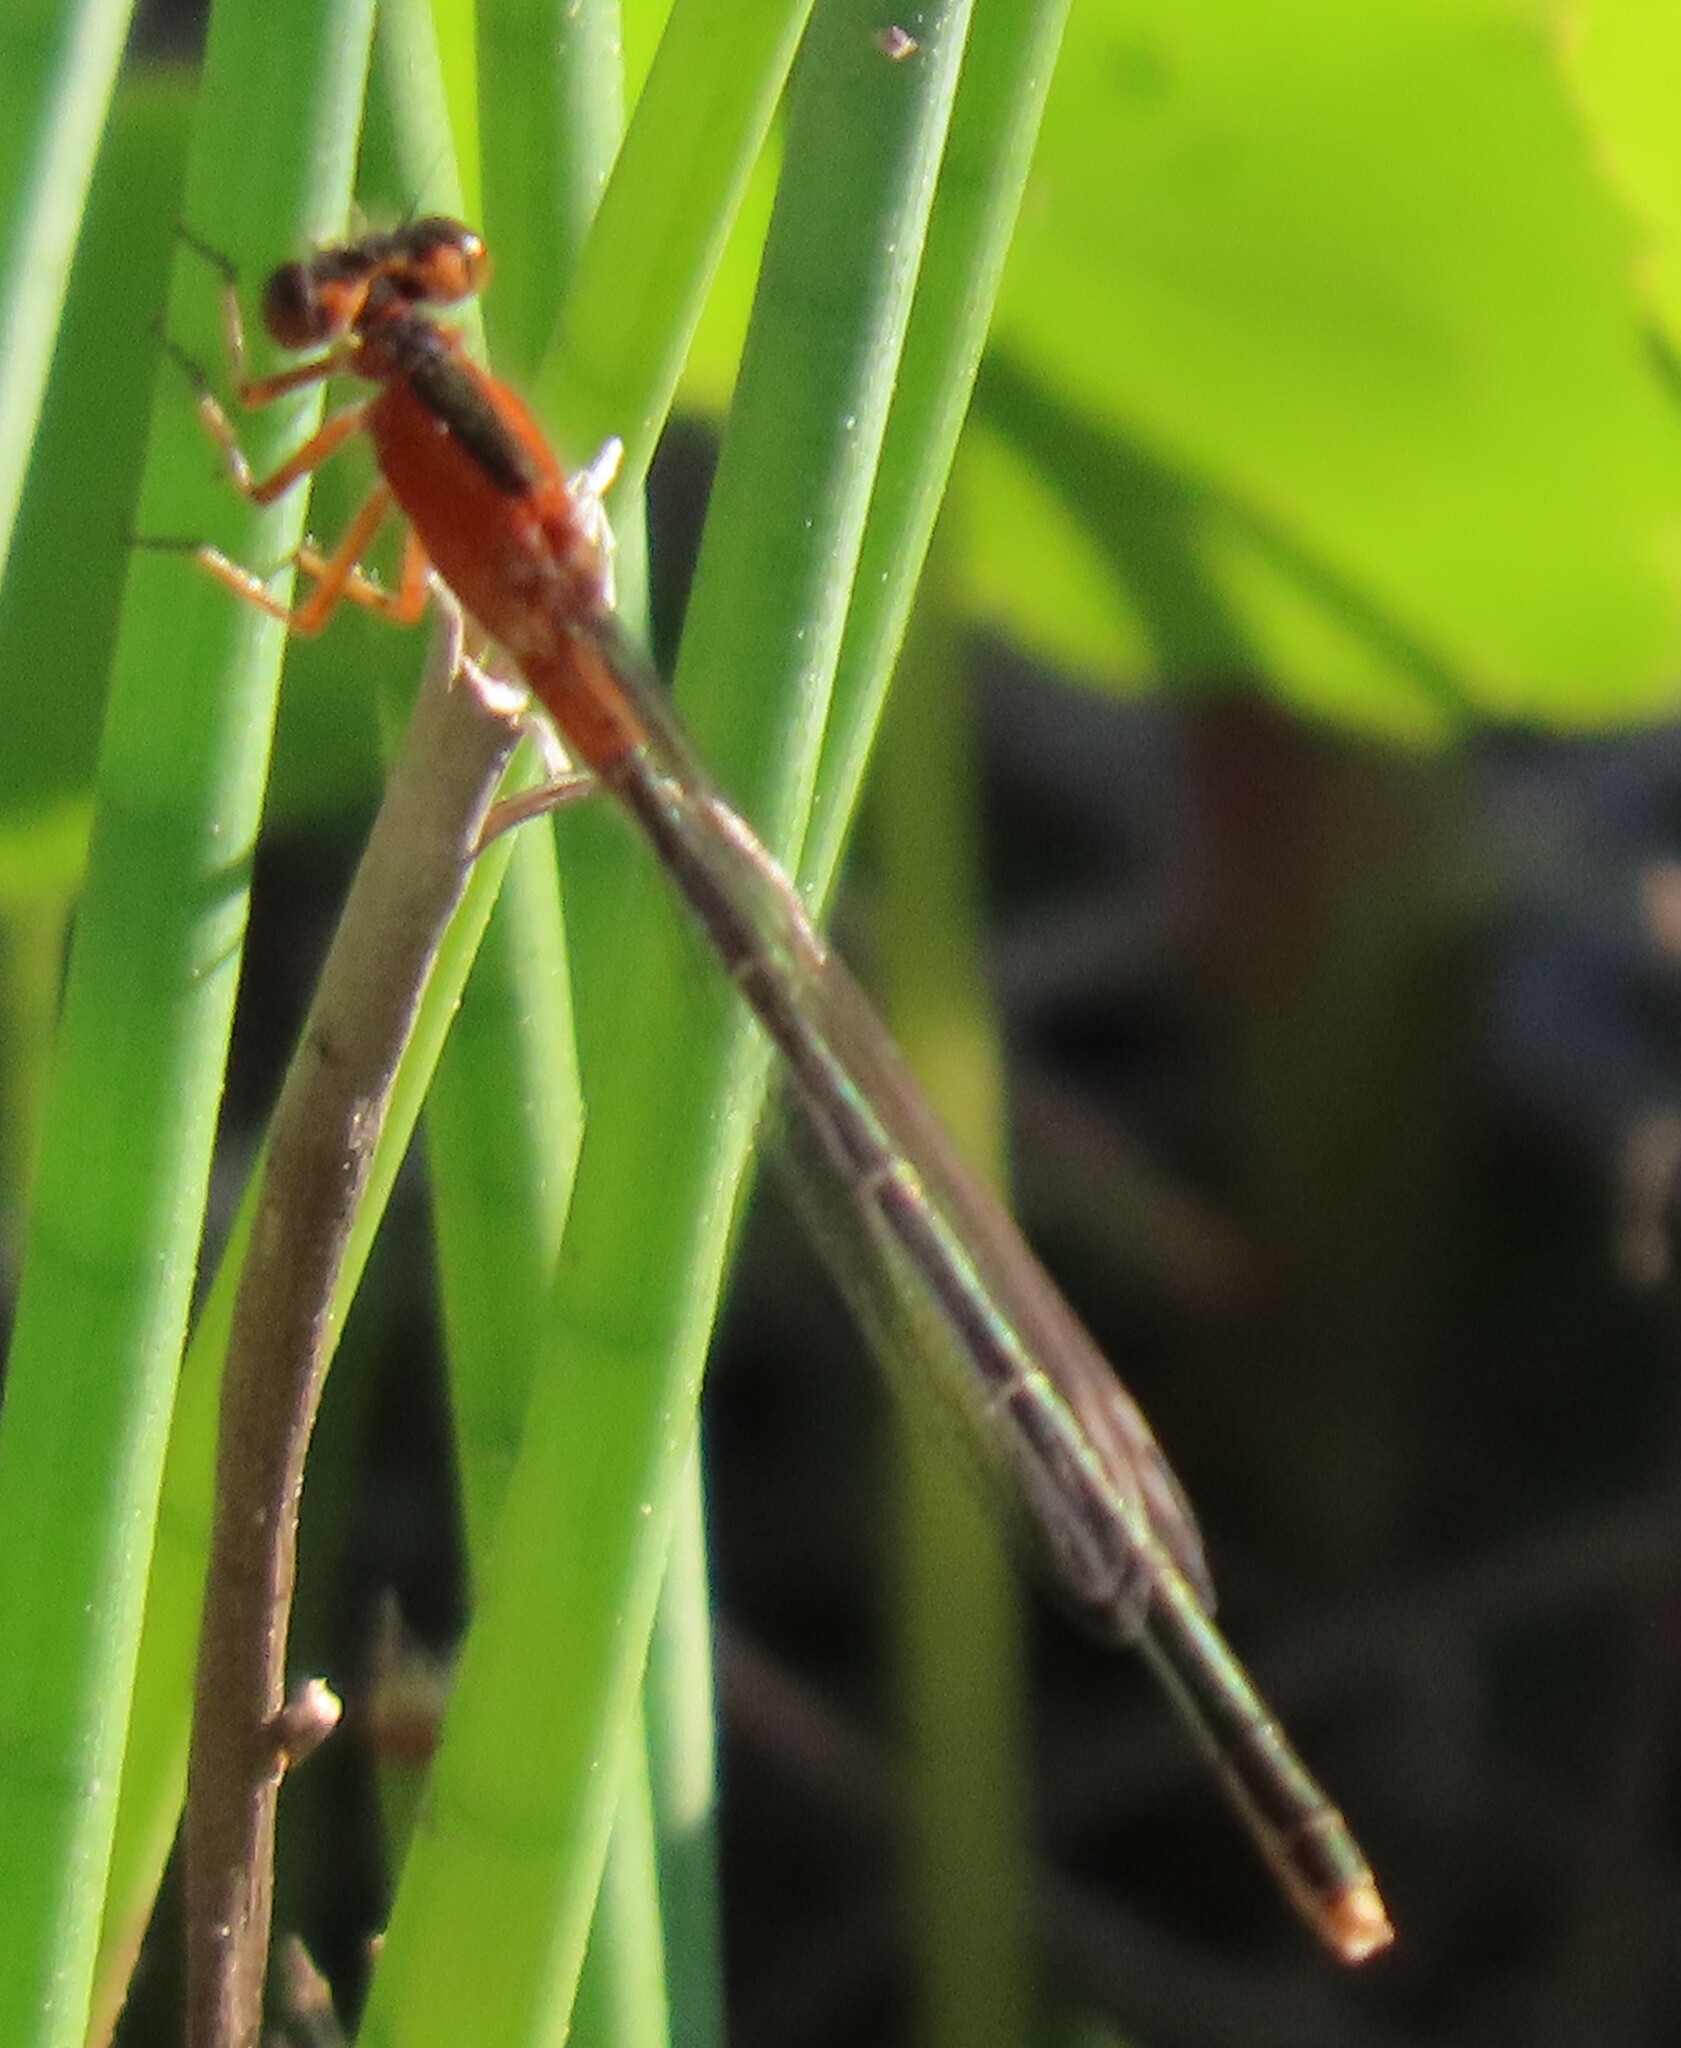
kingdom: Animalia
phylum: Arthropoda
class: Insecta
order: Odonata
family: Coenagrionidae
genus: Ischnura
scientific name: Ischnura ramburii
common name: Rambur's forktail
